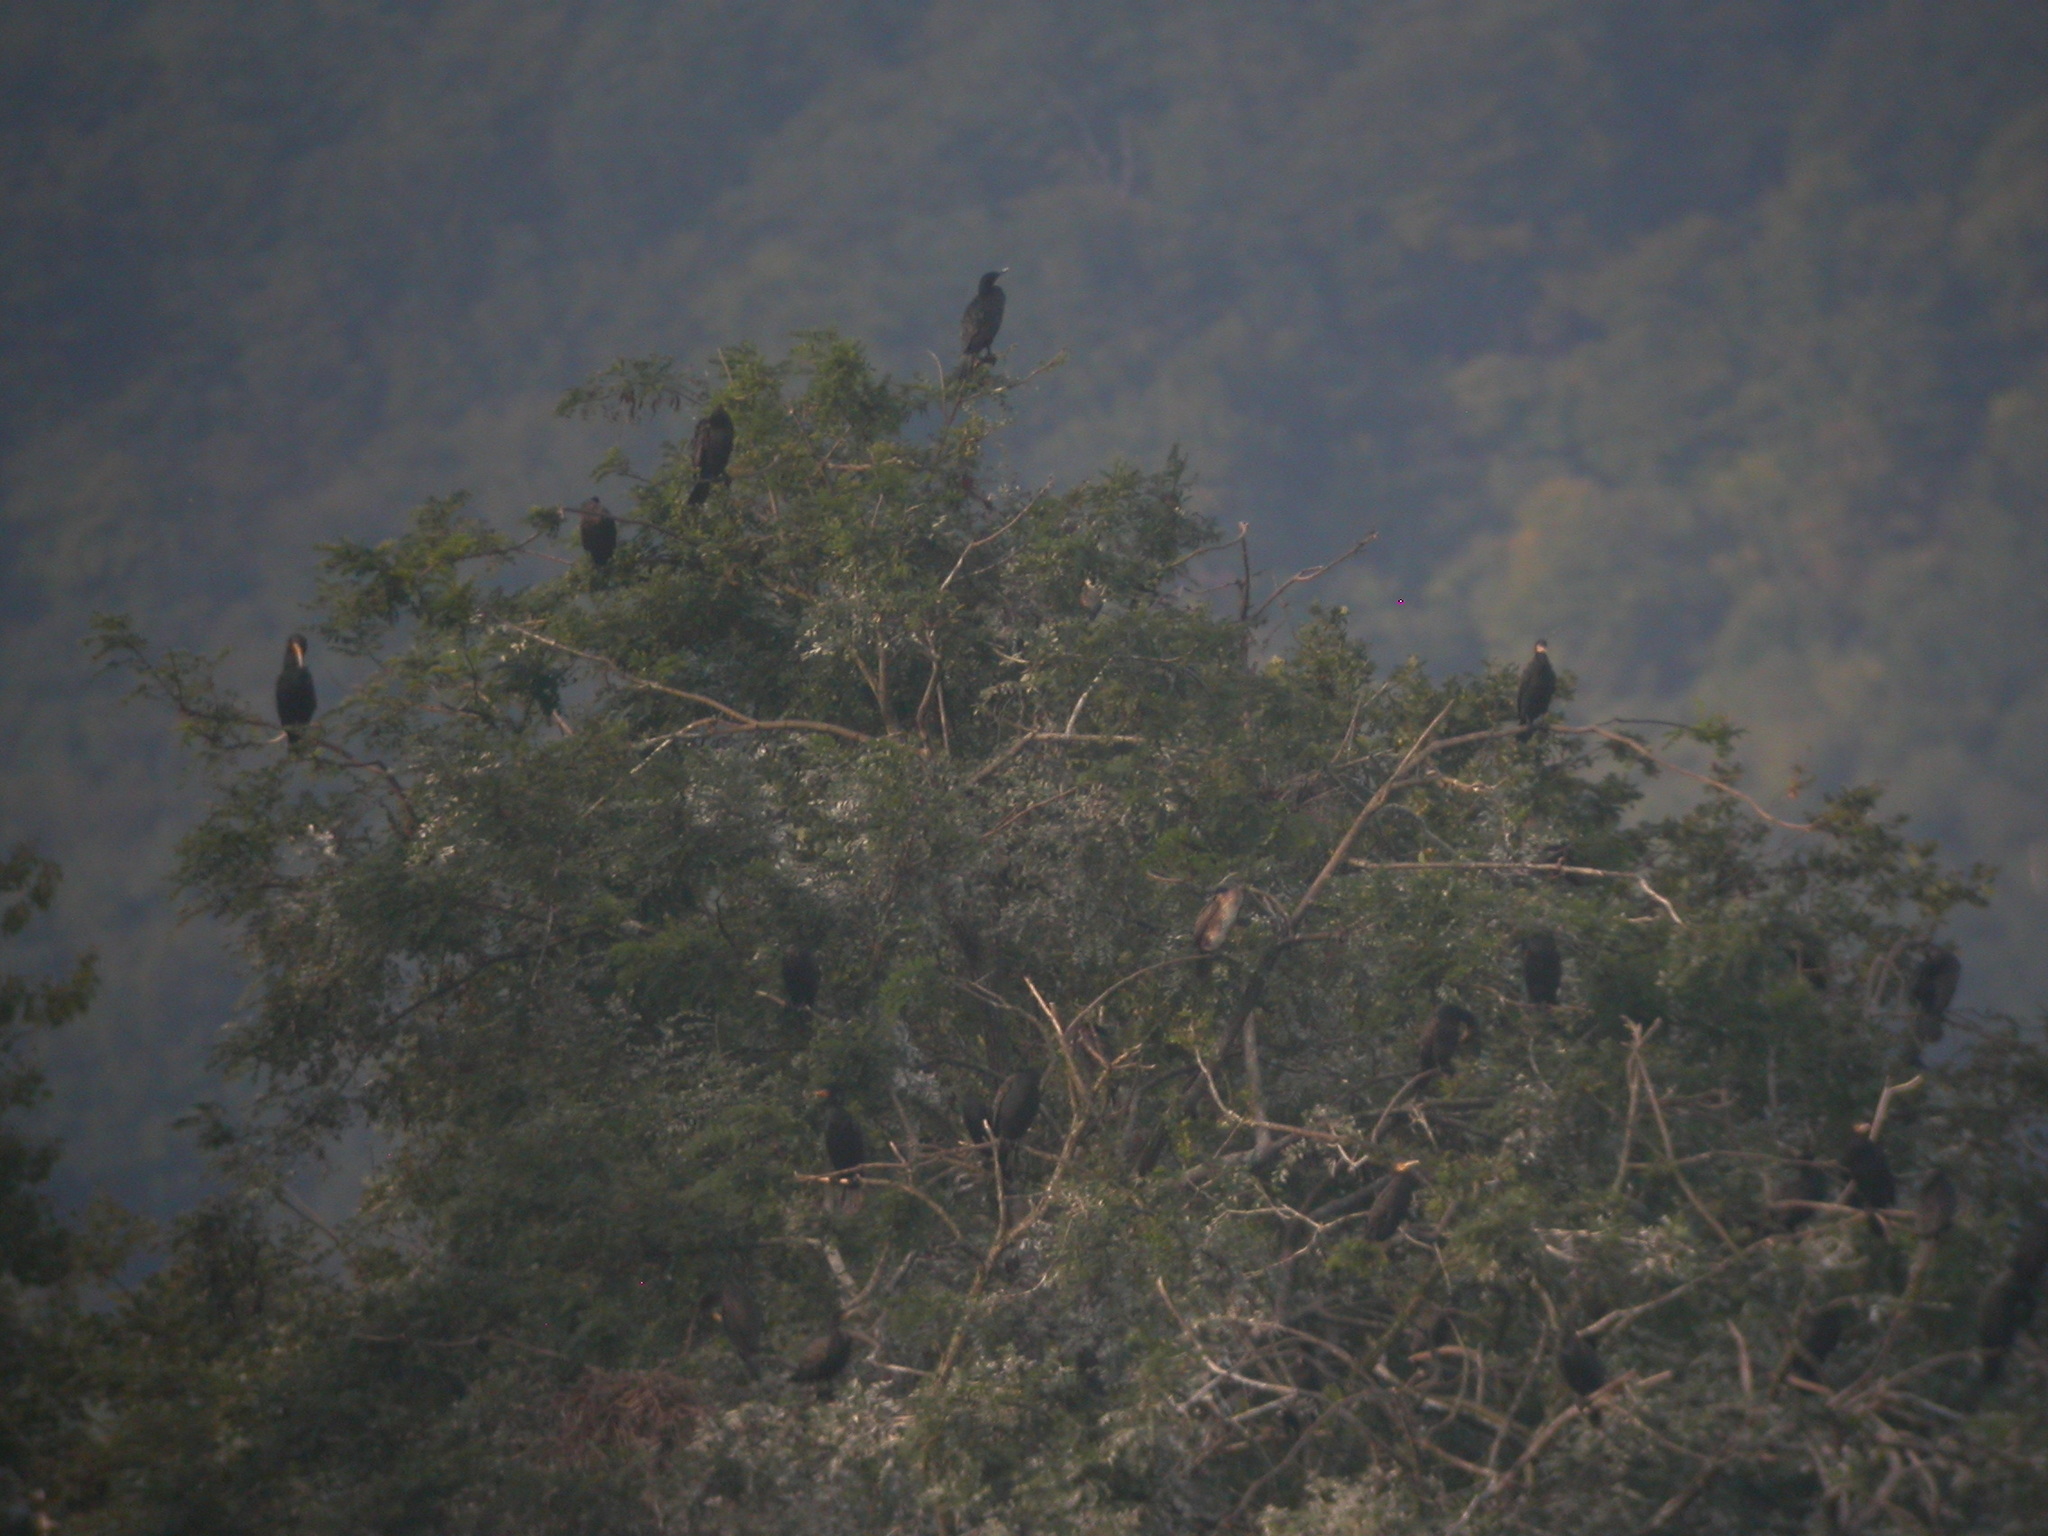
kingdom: Animalia
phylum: Chordata
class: Aves
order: Suliformes
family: Phalacrocoracidae
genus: Phalacrocorax
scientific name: Phalacrocorax carbo
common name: Great cormorant
